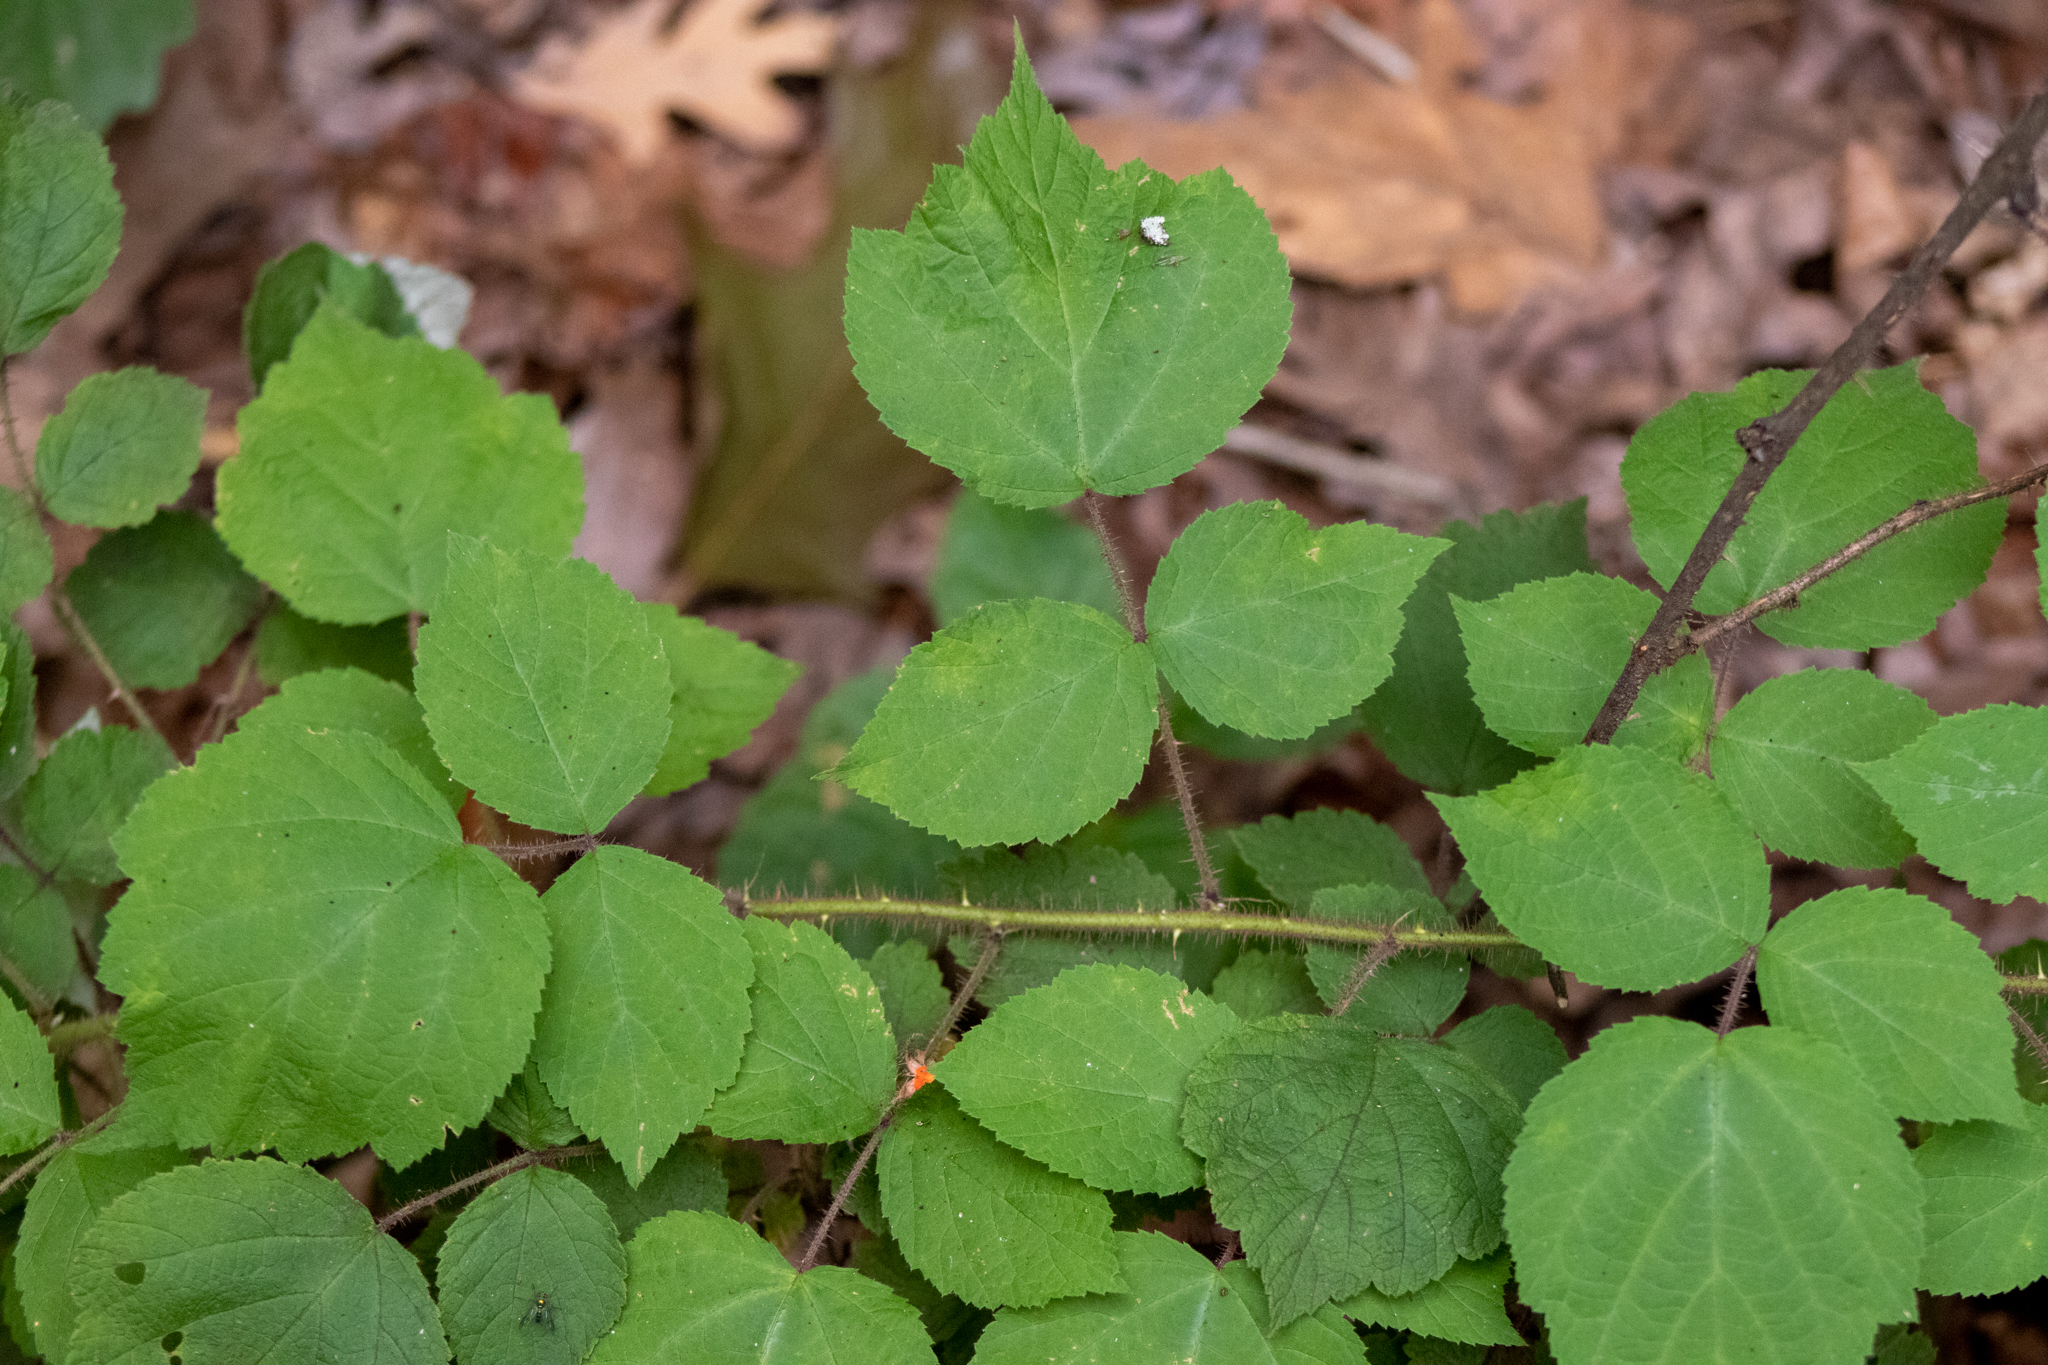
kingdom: Plantae
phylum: Tracheophyta
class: Magnoliopsida
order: Rosales
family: Rosaceae
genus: Rubus
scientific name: Rubus phoenicolasius
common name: Japanese wineberry
